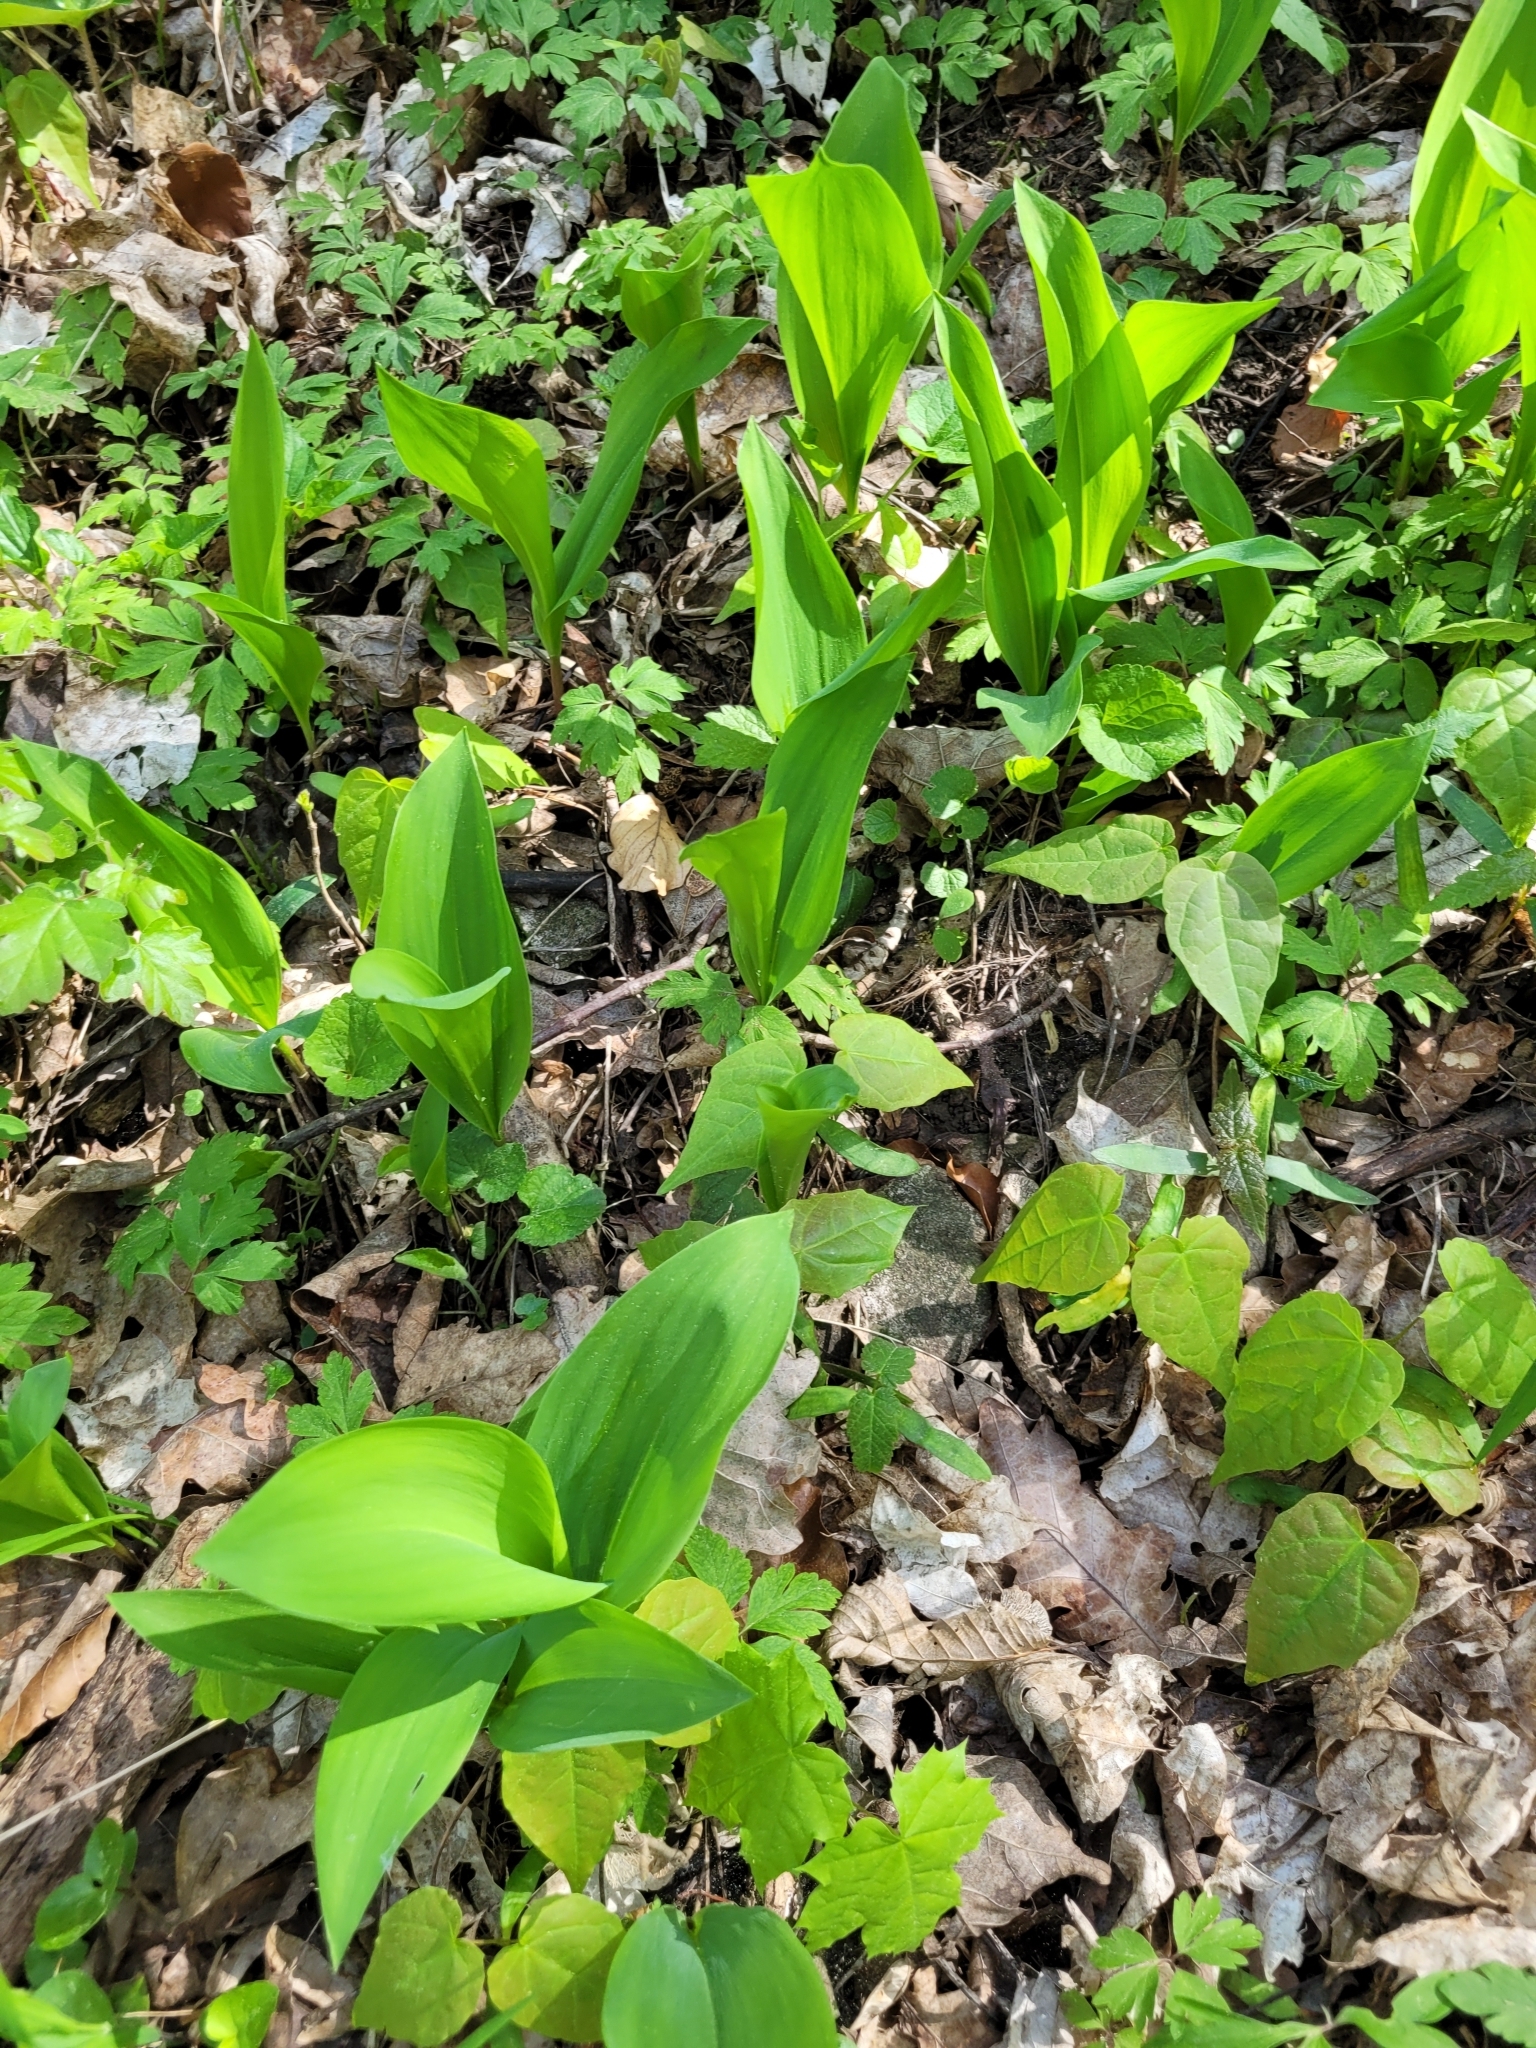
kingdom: Plantae
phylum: Tracheophyta
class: Liliopsida
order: Asparagales
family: Asparagaceae
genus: Convallaria
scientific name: Convallaria majalis
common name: Lily-of-the-valley
